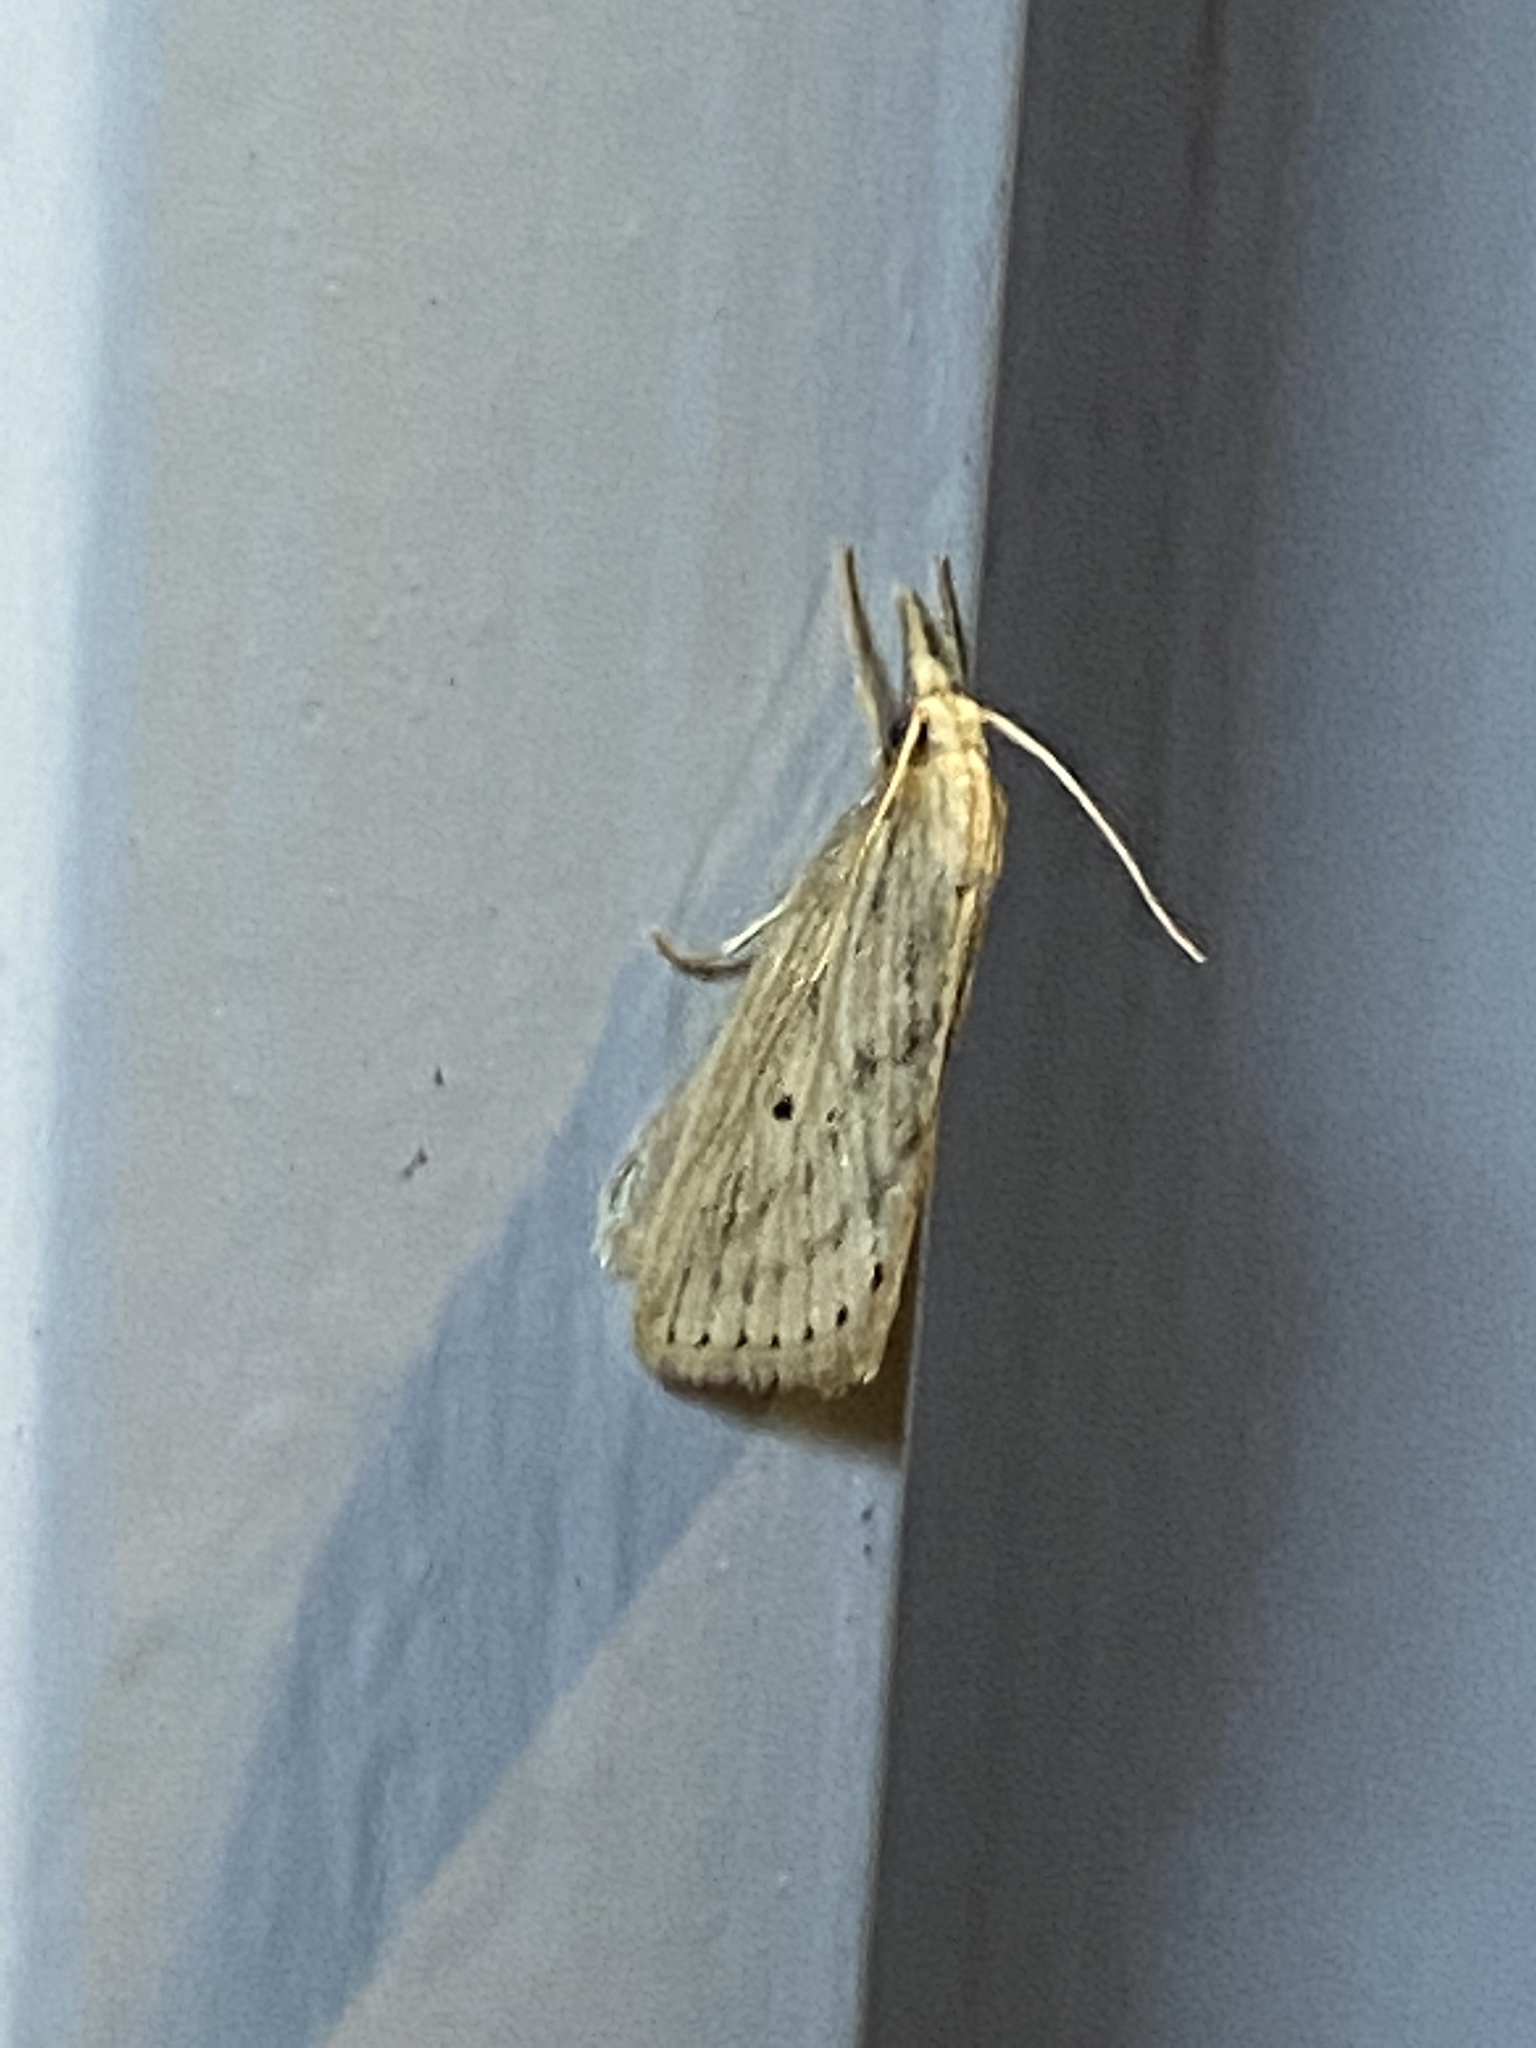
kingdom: Animalia
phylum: Arthropoda
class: Insecta
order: Lepidoptera
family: Crambidae
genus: Diatraea
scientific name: Diatraea lisetta
